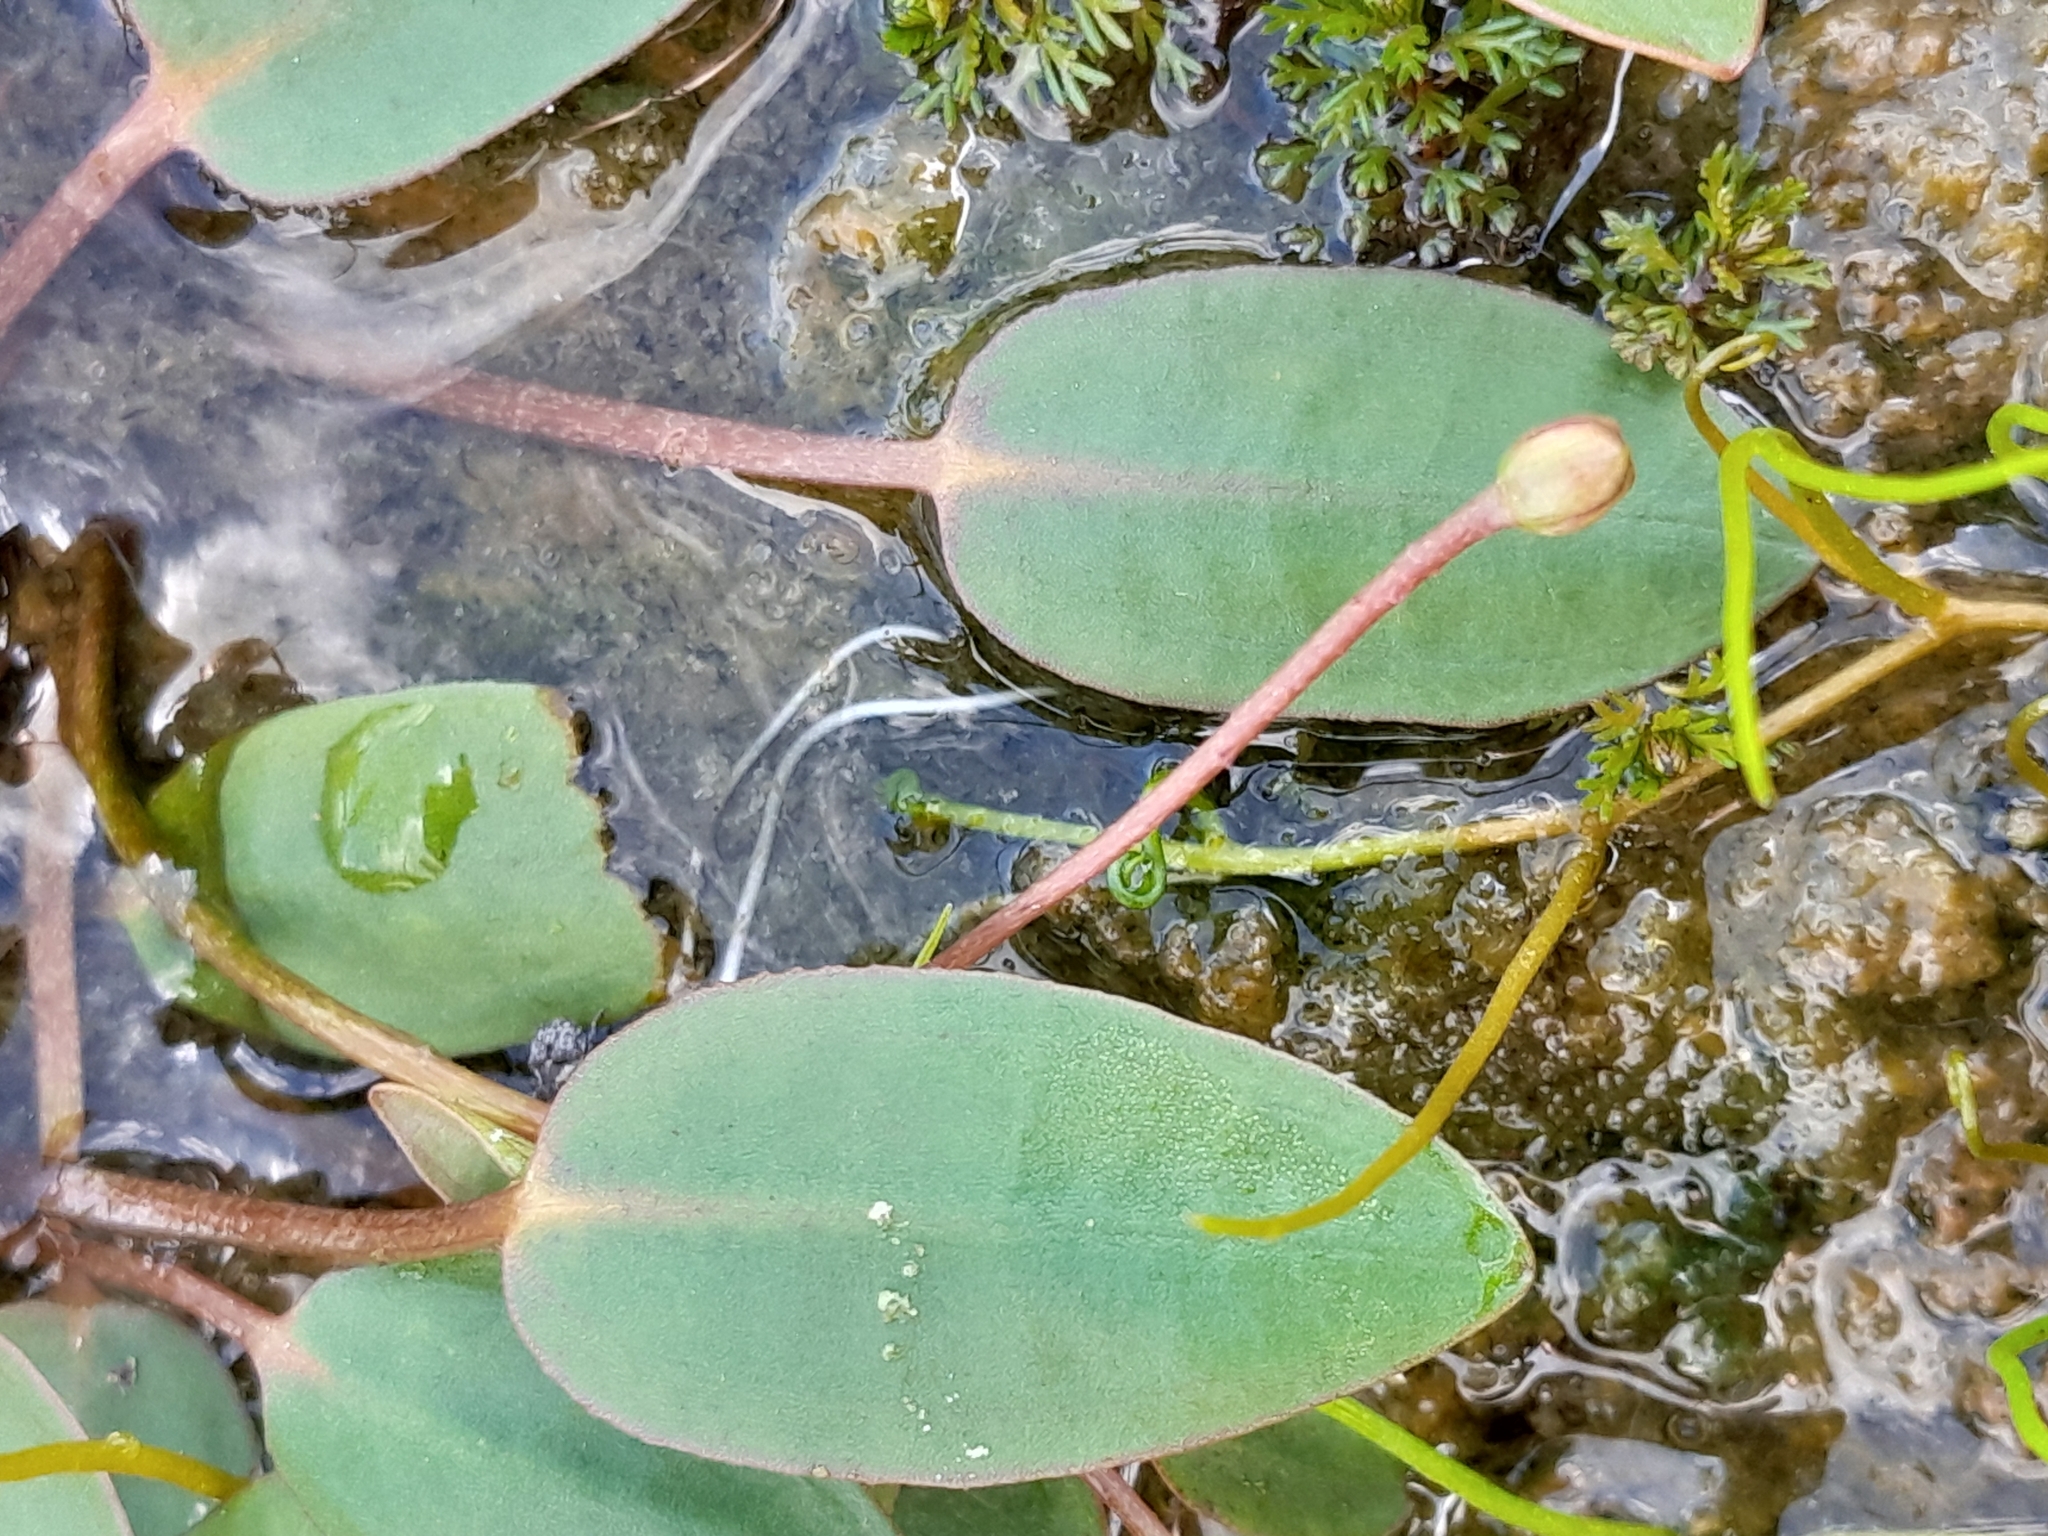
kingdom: Plantae
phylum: Tracheophyta
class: Liliopsida
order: Alismatales
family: Alismataceae
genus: Luronium
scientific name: Luronium natans
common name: Floating water-plantain
